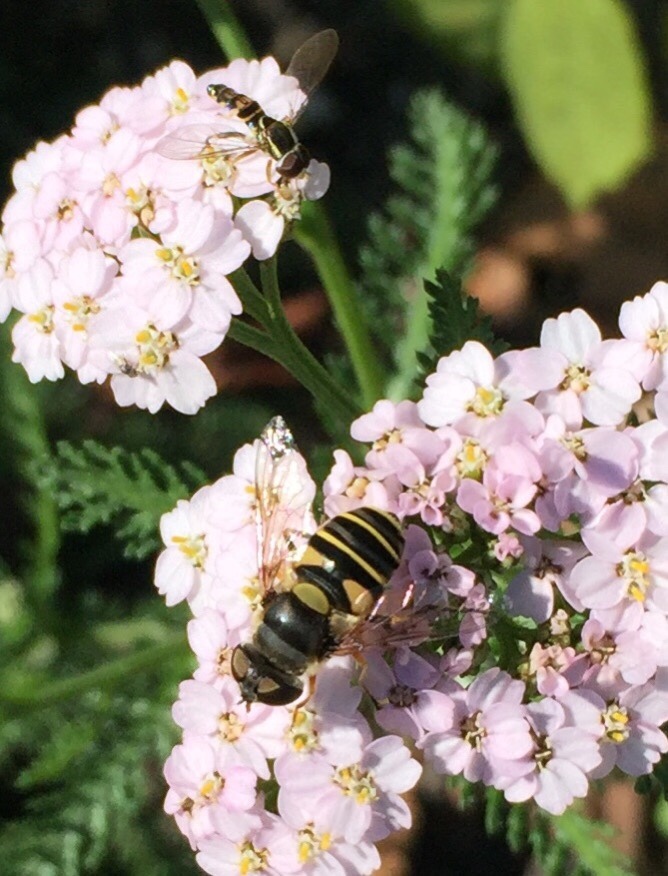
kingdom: Animalia
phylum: Arthropoda
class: Insecta
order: Diptera
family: Syrphidae
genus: Eristalis
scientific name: Eristalis transversa
